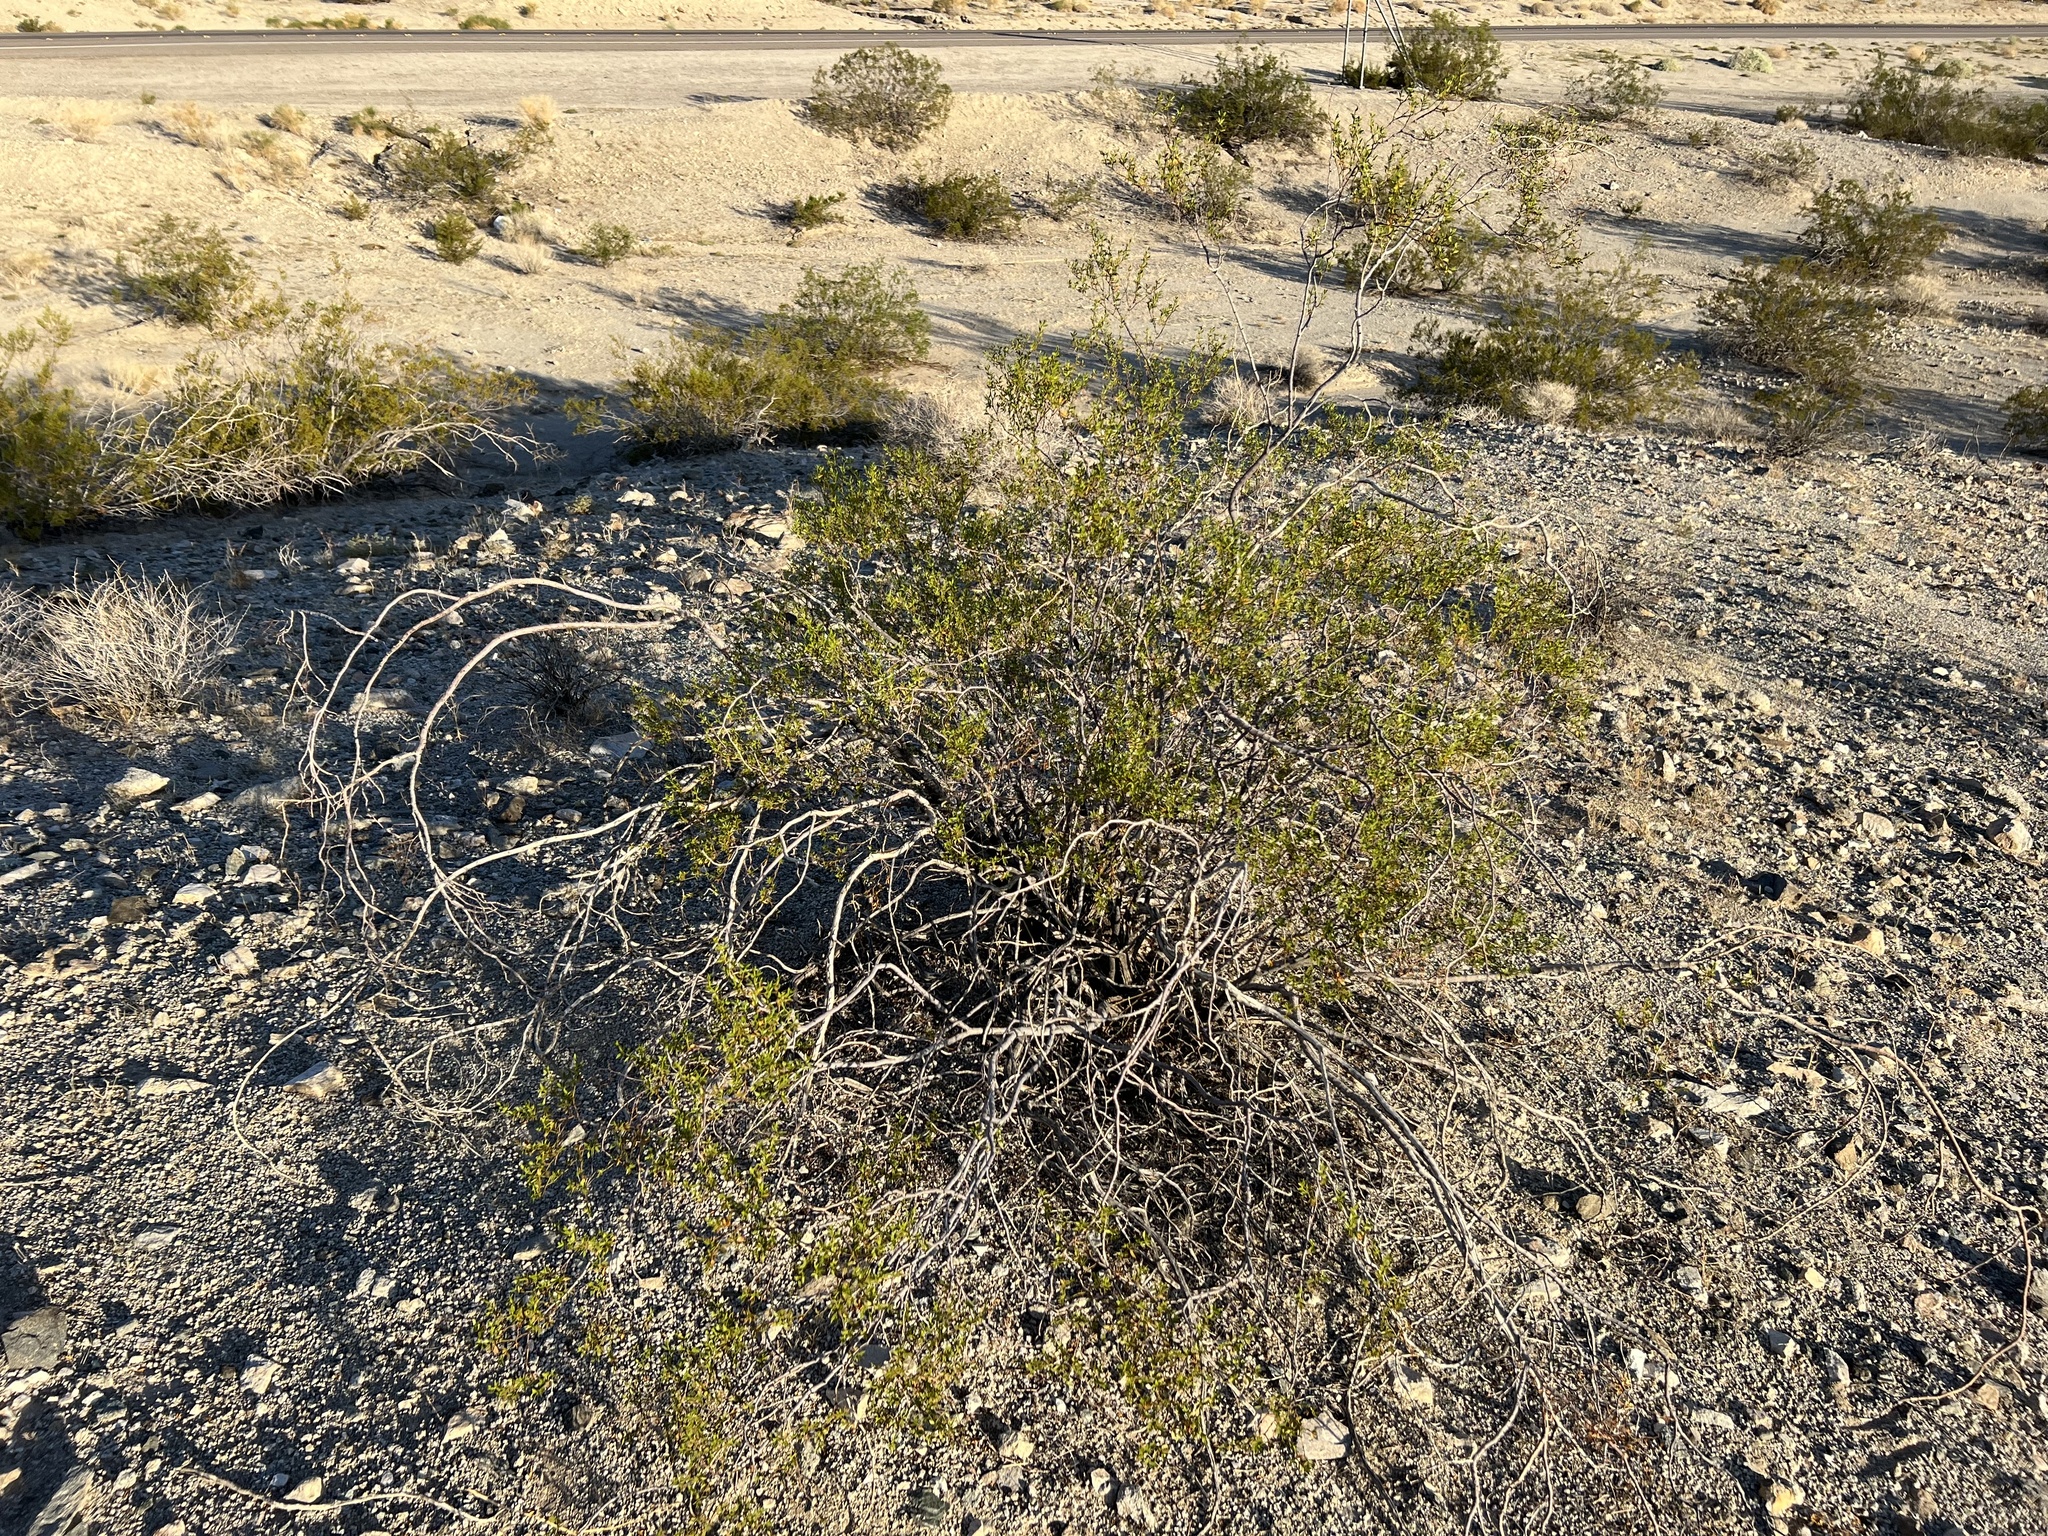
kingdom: Plantae
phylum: Tracheophyta
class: Magnoliopsida
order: Zygophyllales
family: Zygophyllaceae
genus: Larrea
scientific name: Larrea tridentata
